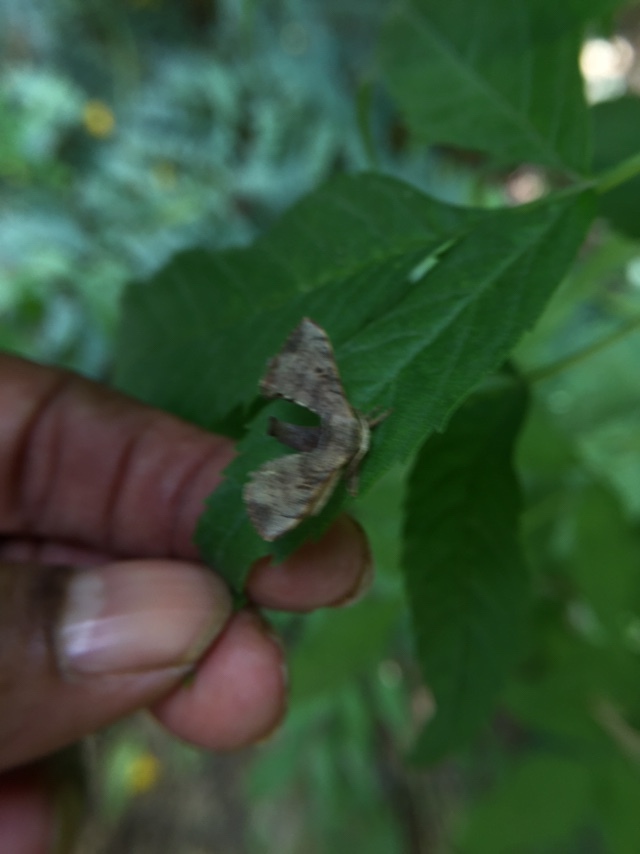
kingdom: Animalia
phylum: Arthropoda
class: Insecta
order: Lepidoptera
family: Bombycidae
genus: Trilocha
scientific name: Trilocha varians
